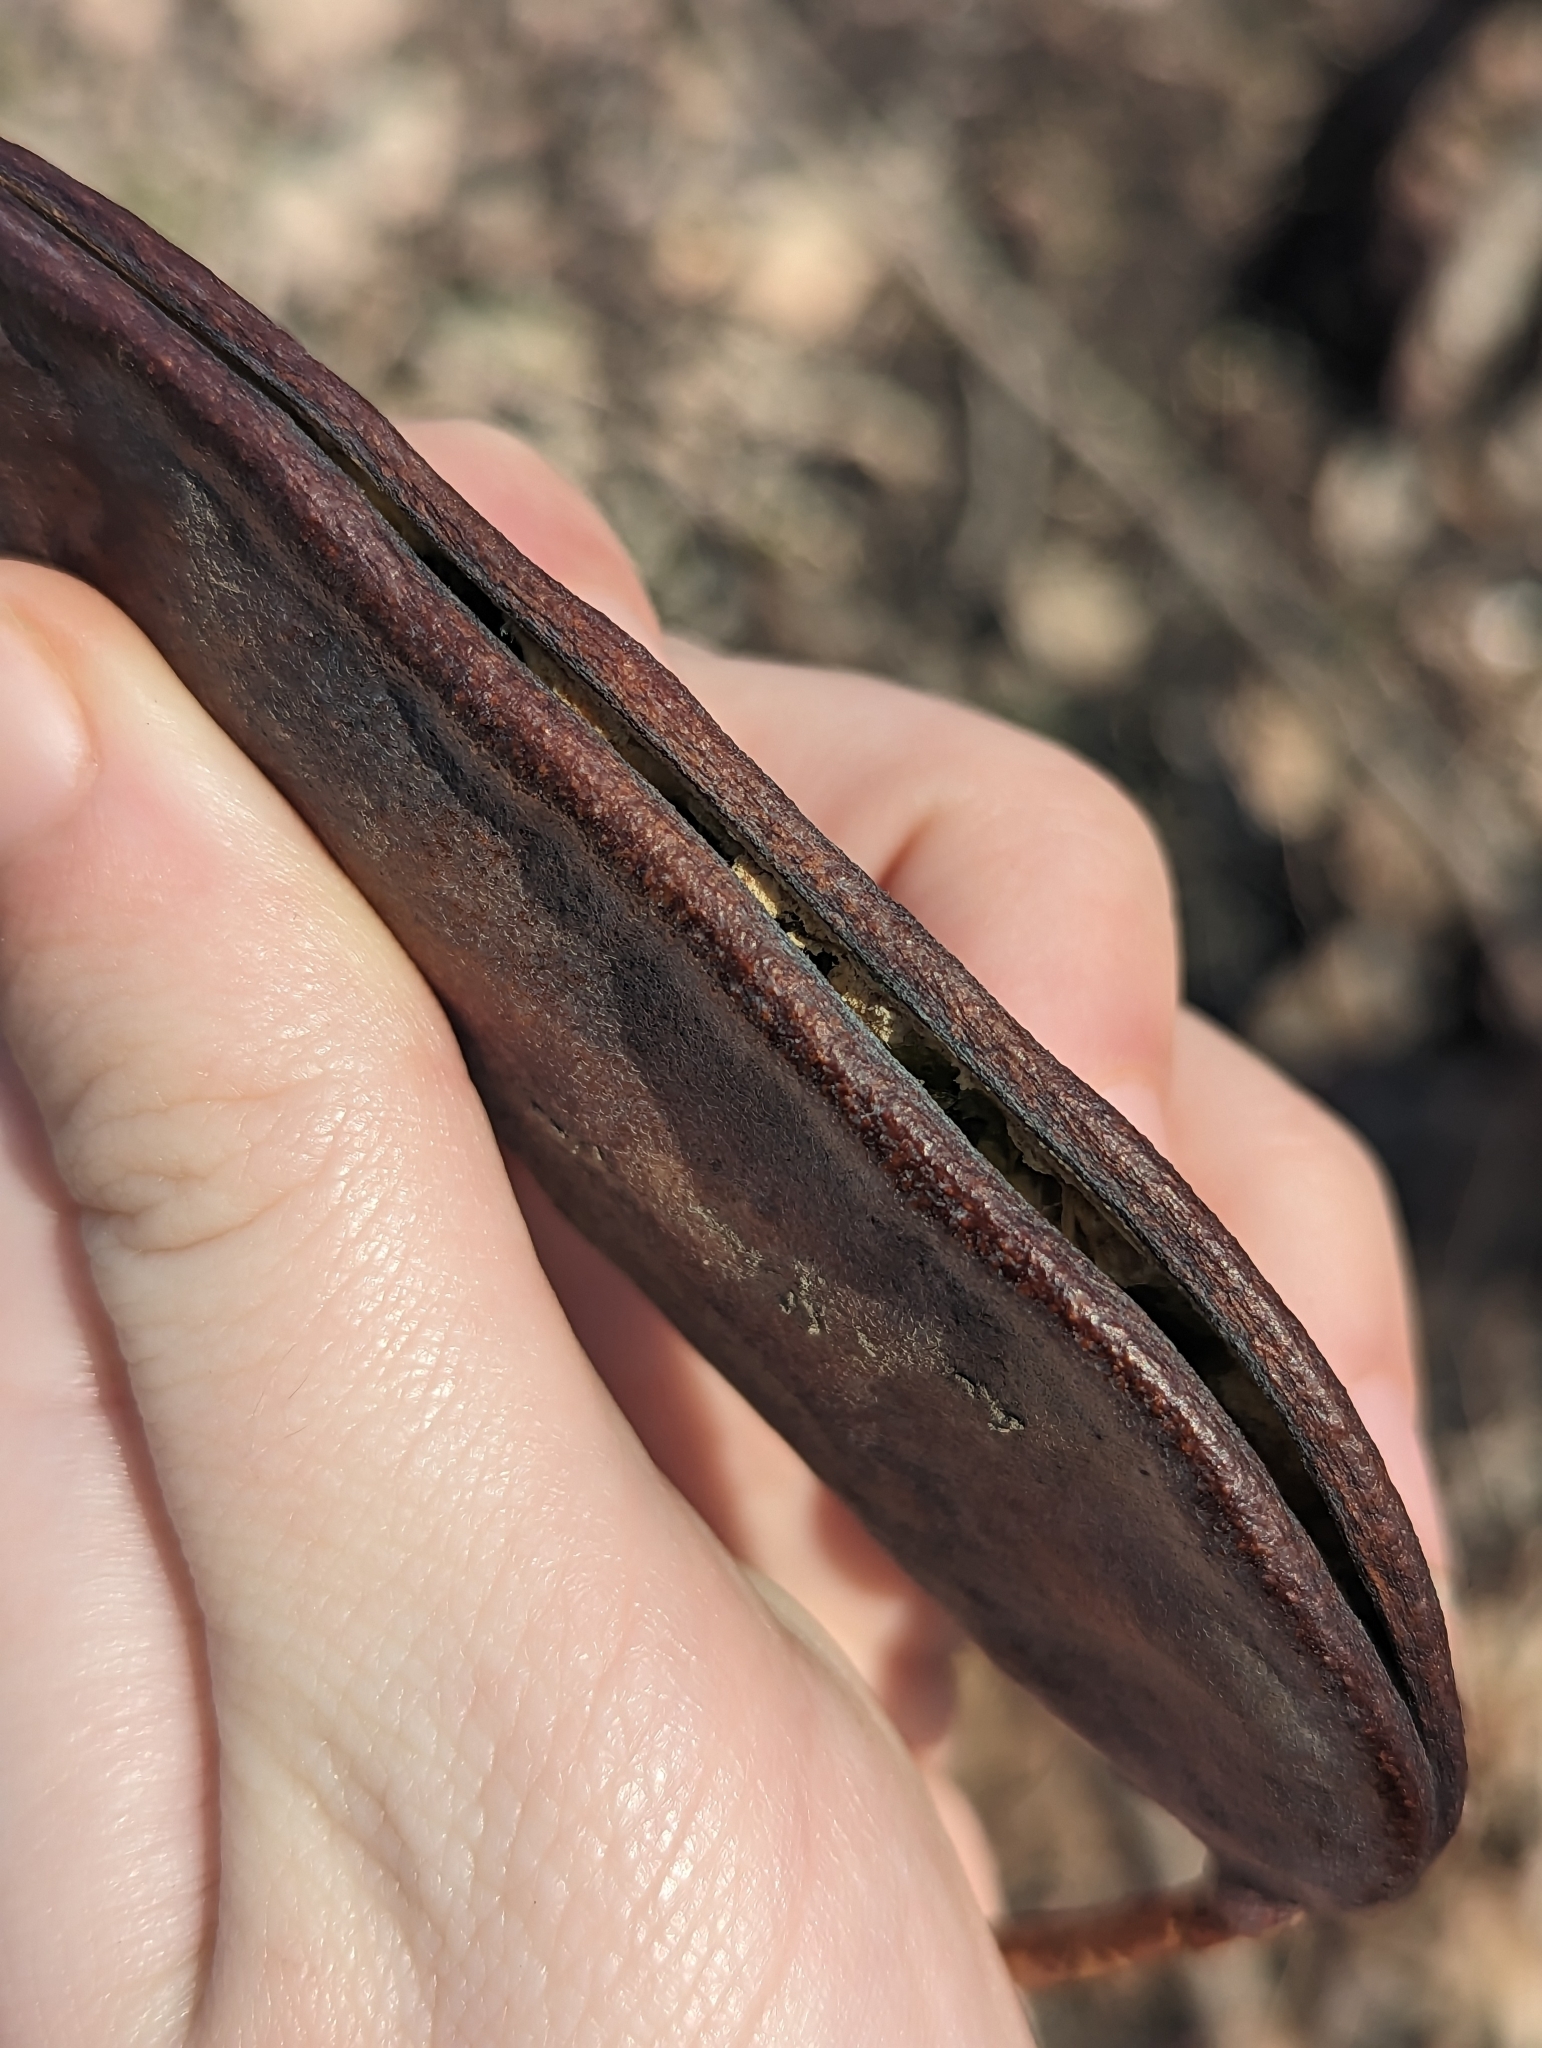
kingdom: Plantae
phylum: Tracheophyta
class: Magnoliopsida
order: Fabales
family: Fabaceae
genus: Gymnocladus
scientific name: Gymnocladus dioicus
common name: Kentucky coffee-tree
